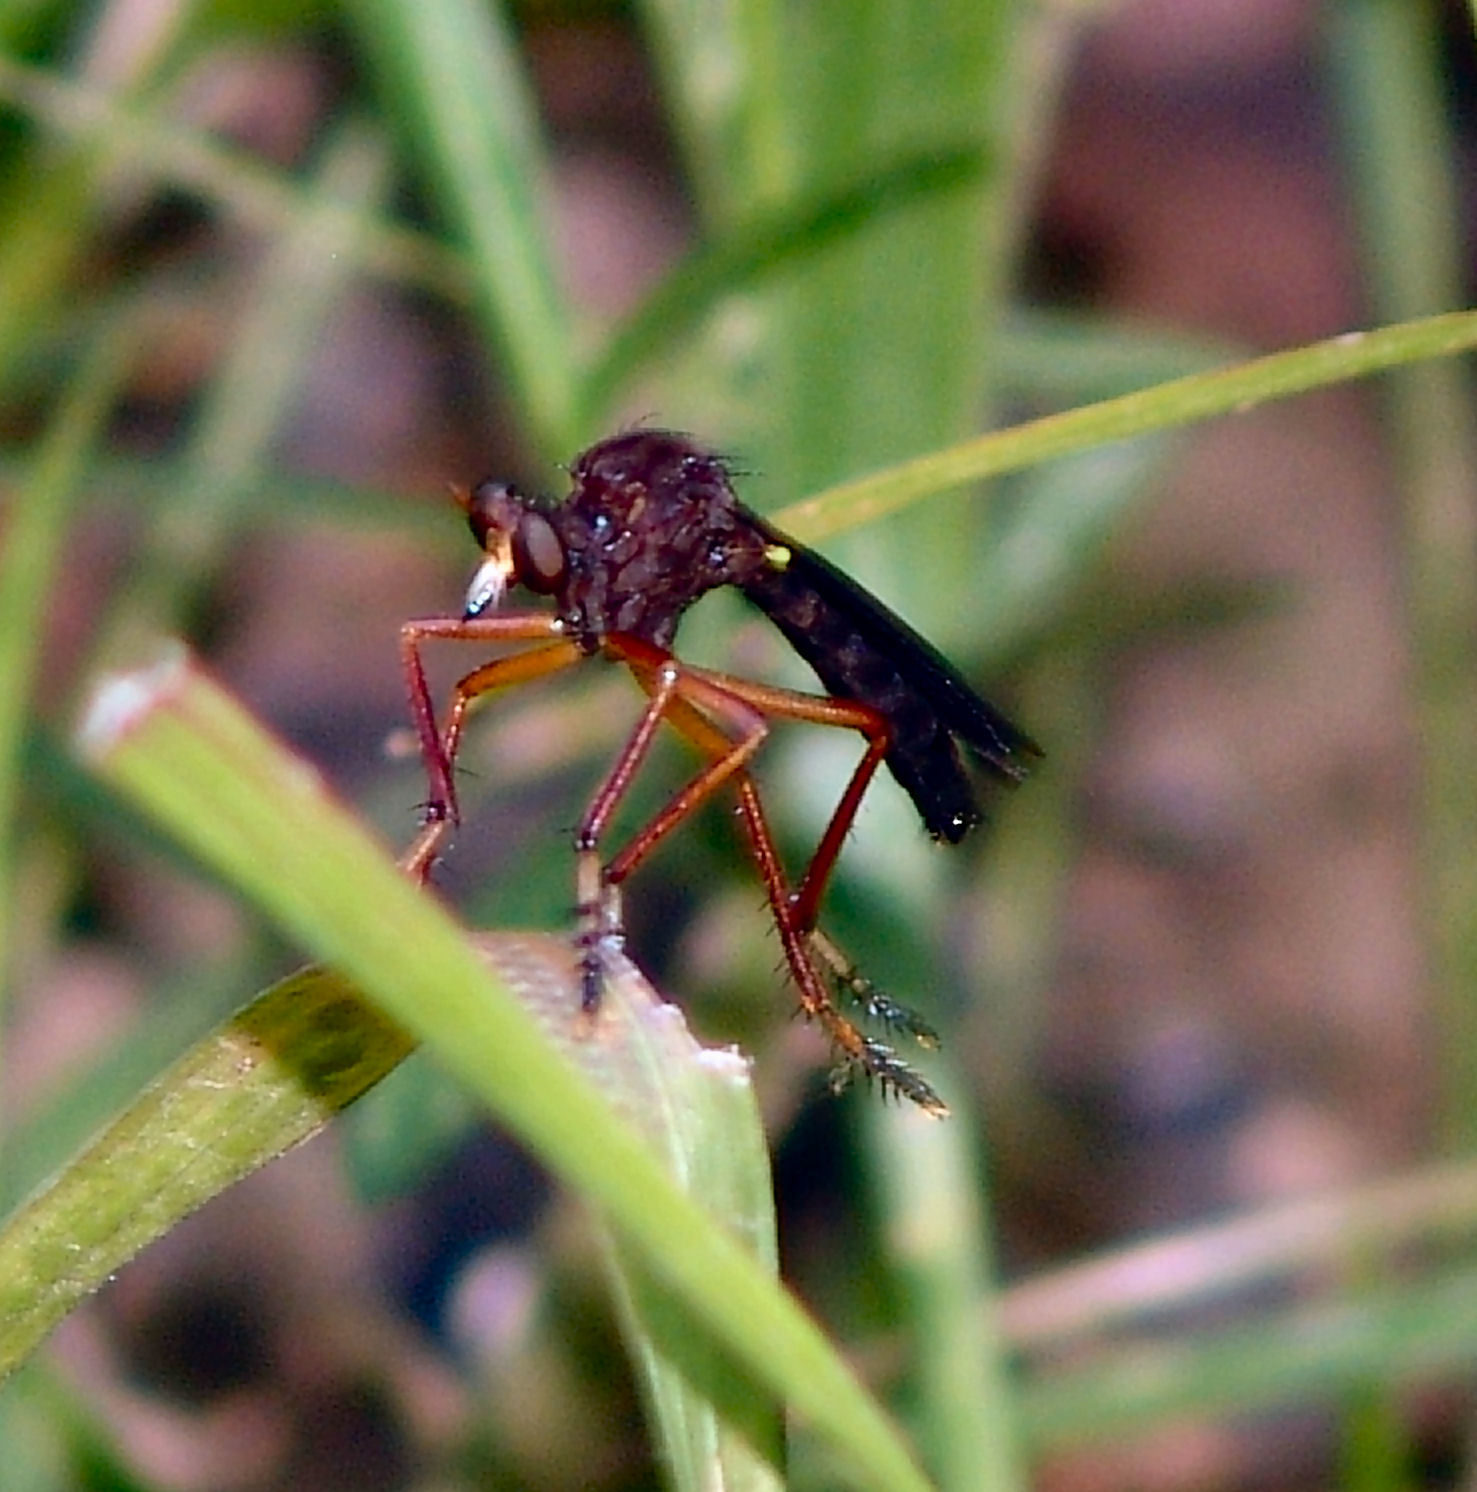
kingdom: Animalia
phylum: Arthropoda
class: Insecta
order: Diptera
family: Asilidae
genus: Diogmites
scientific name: Diogmites platypterus
